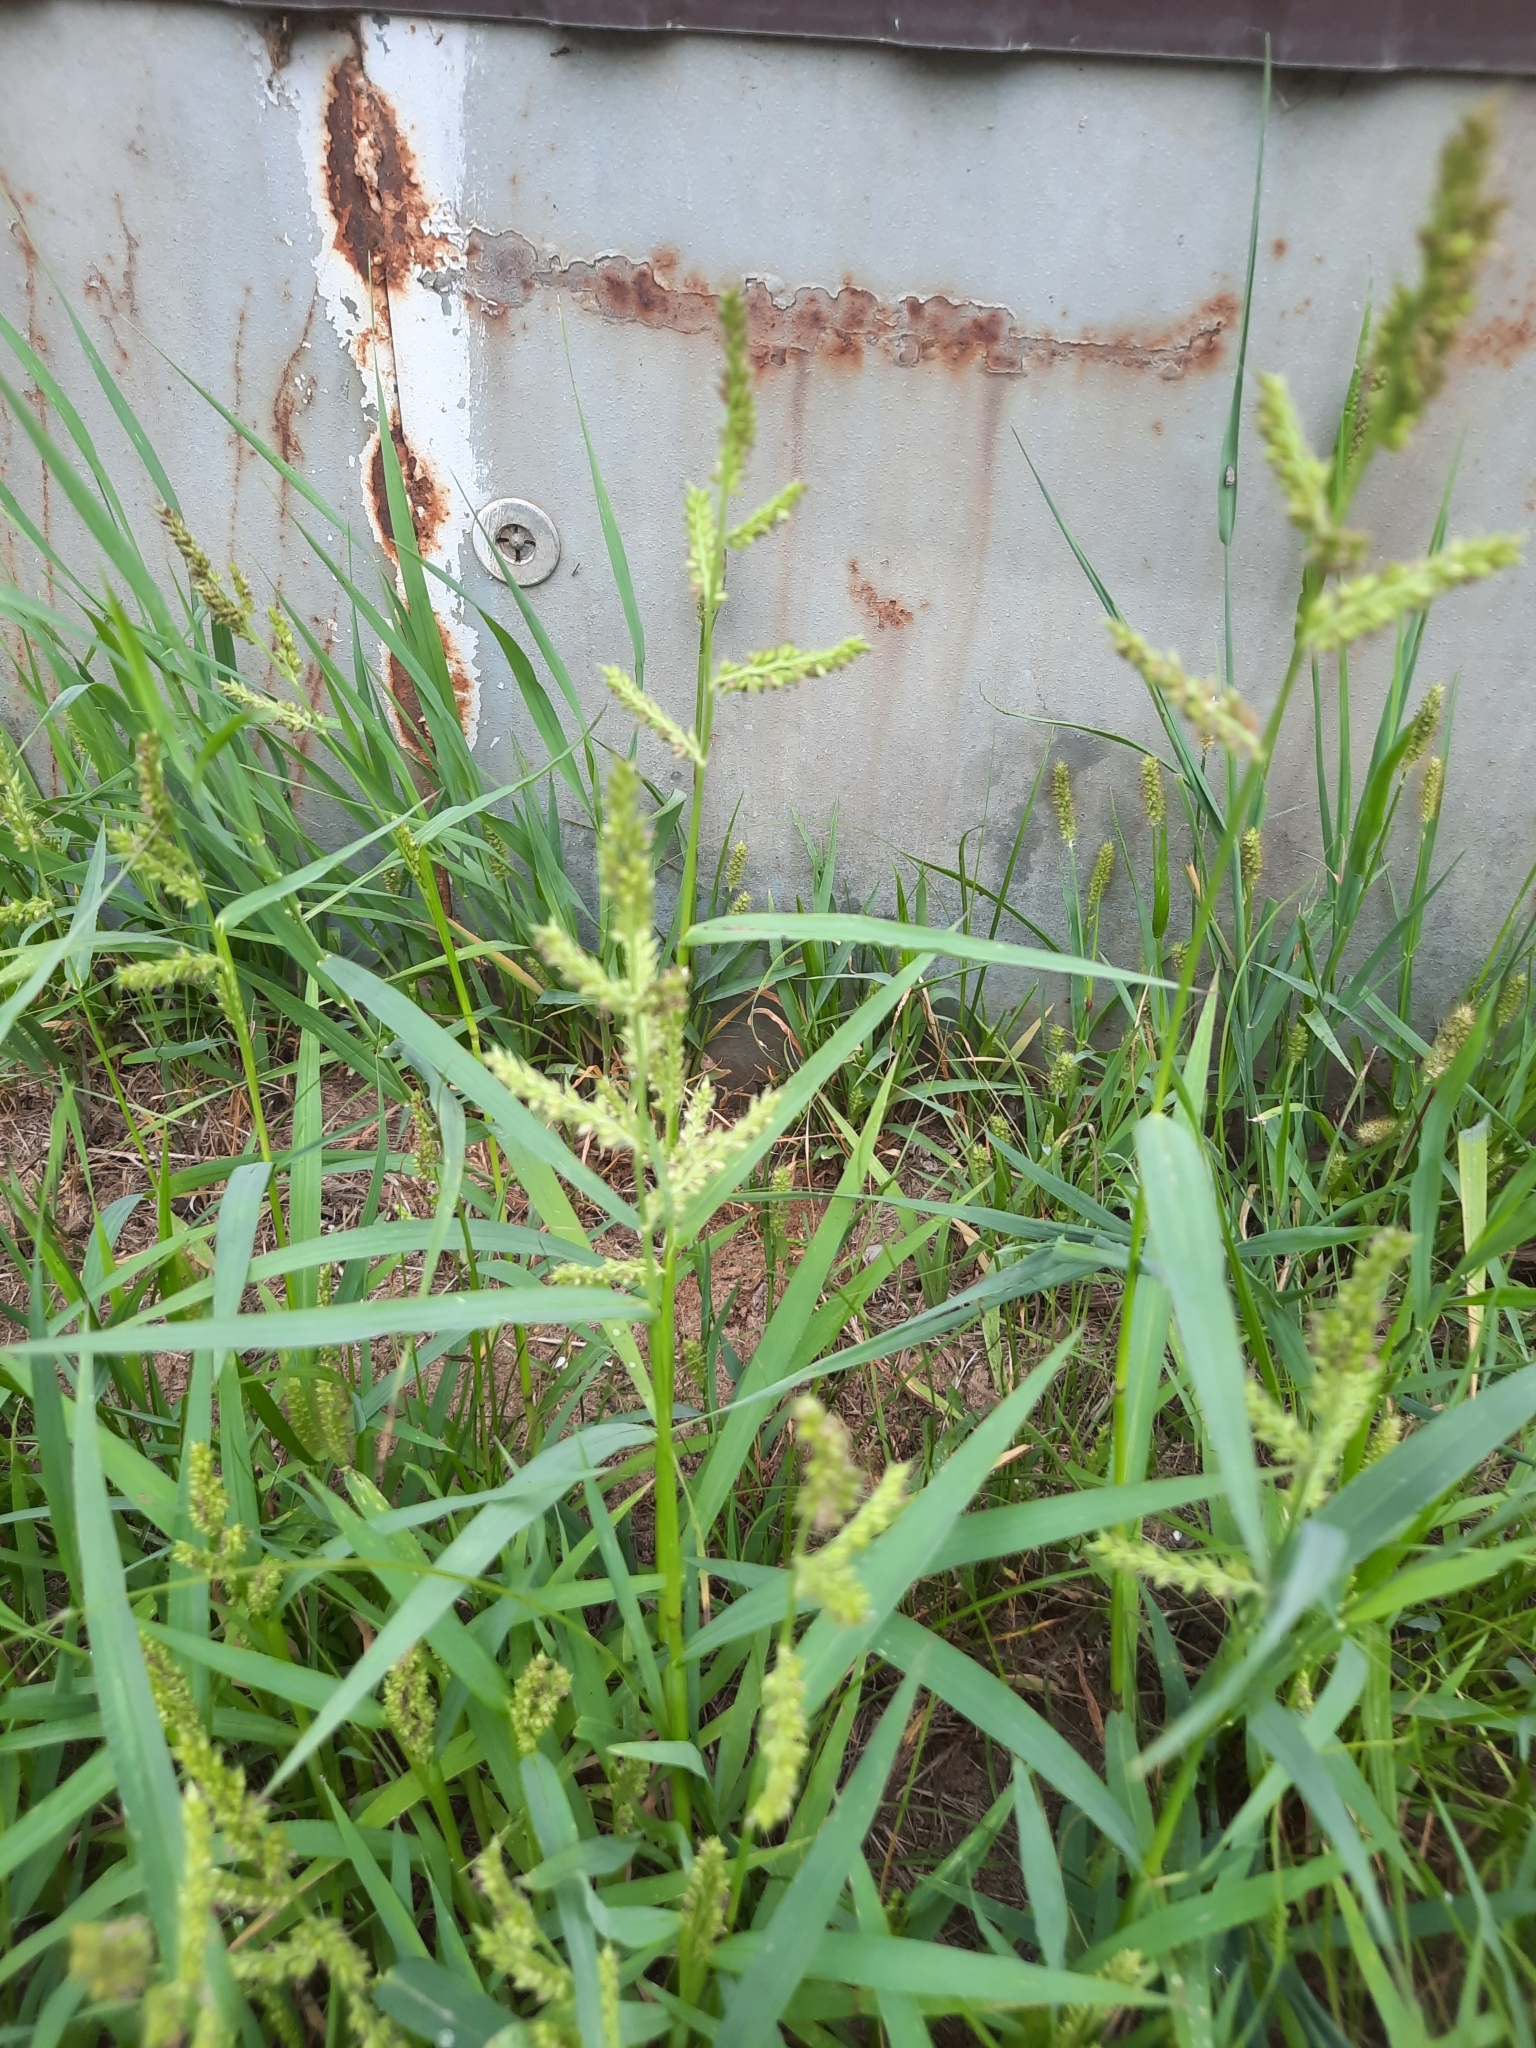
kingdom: Plantae
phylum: Tracheophyta
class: Liliopsida
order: Poales
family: Poaceae
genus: Echinochloa
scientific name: Echinochloa crus-galli
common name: Cockspur
